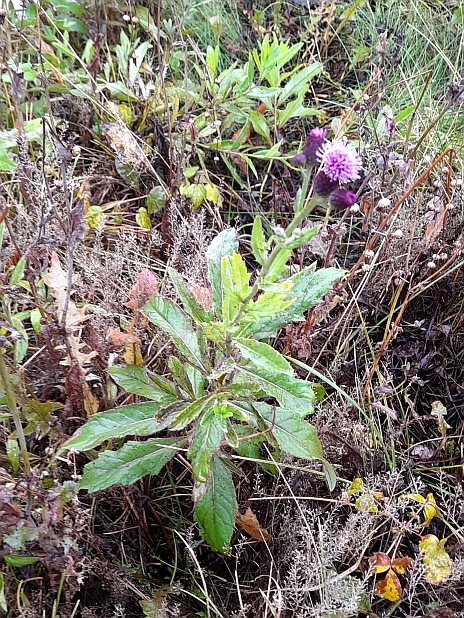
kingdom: Plantae
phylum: Tracheophyta
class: Magnoliopsida
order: Asterales
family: Asteraceae
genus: Cirsium
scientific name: Cirsium arvense
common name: Creeping thistle
